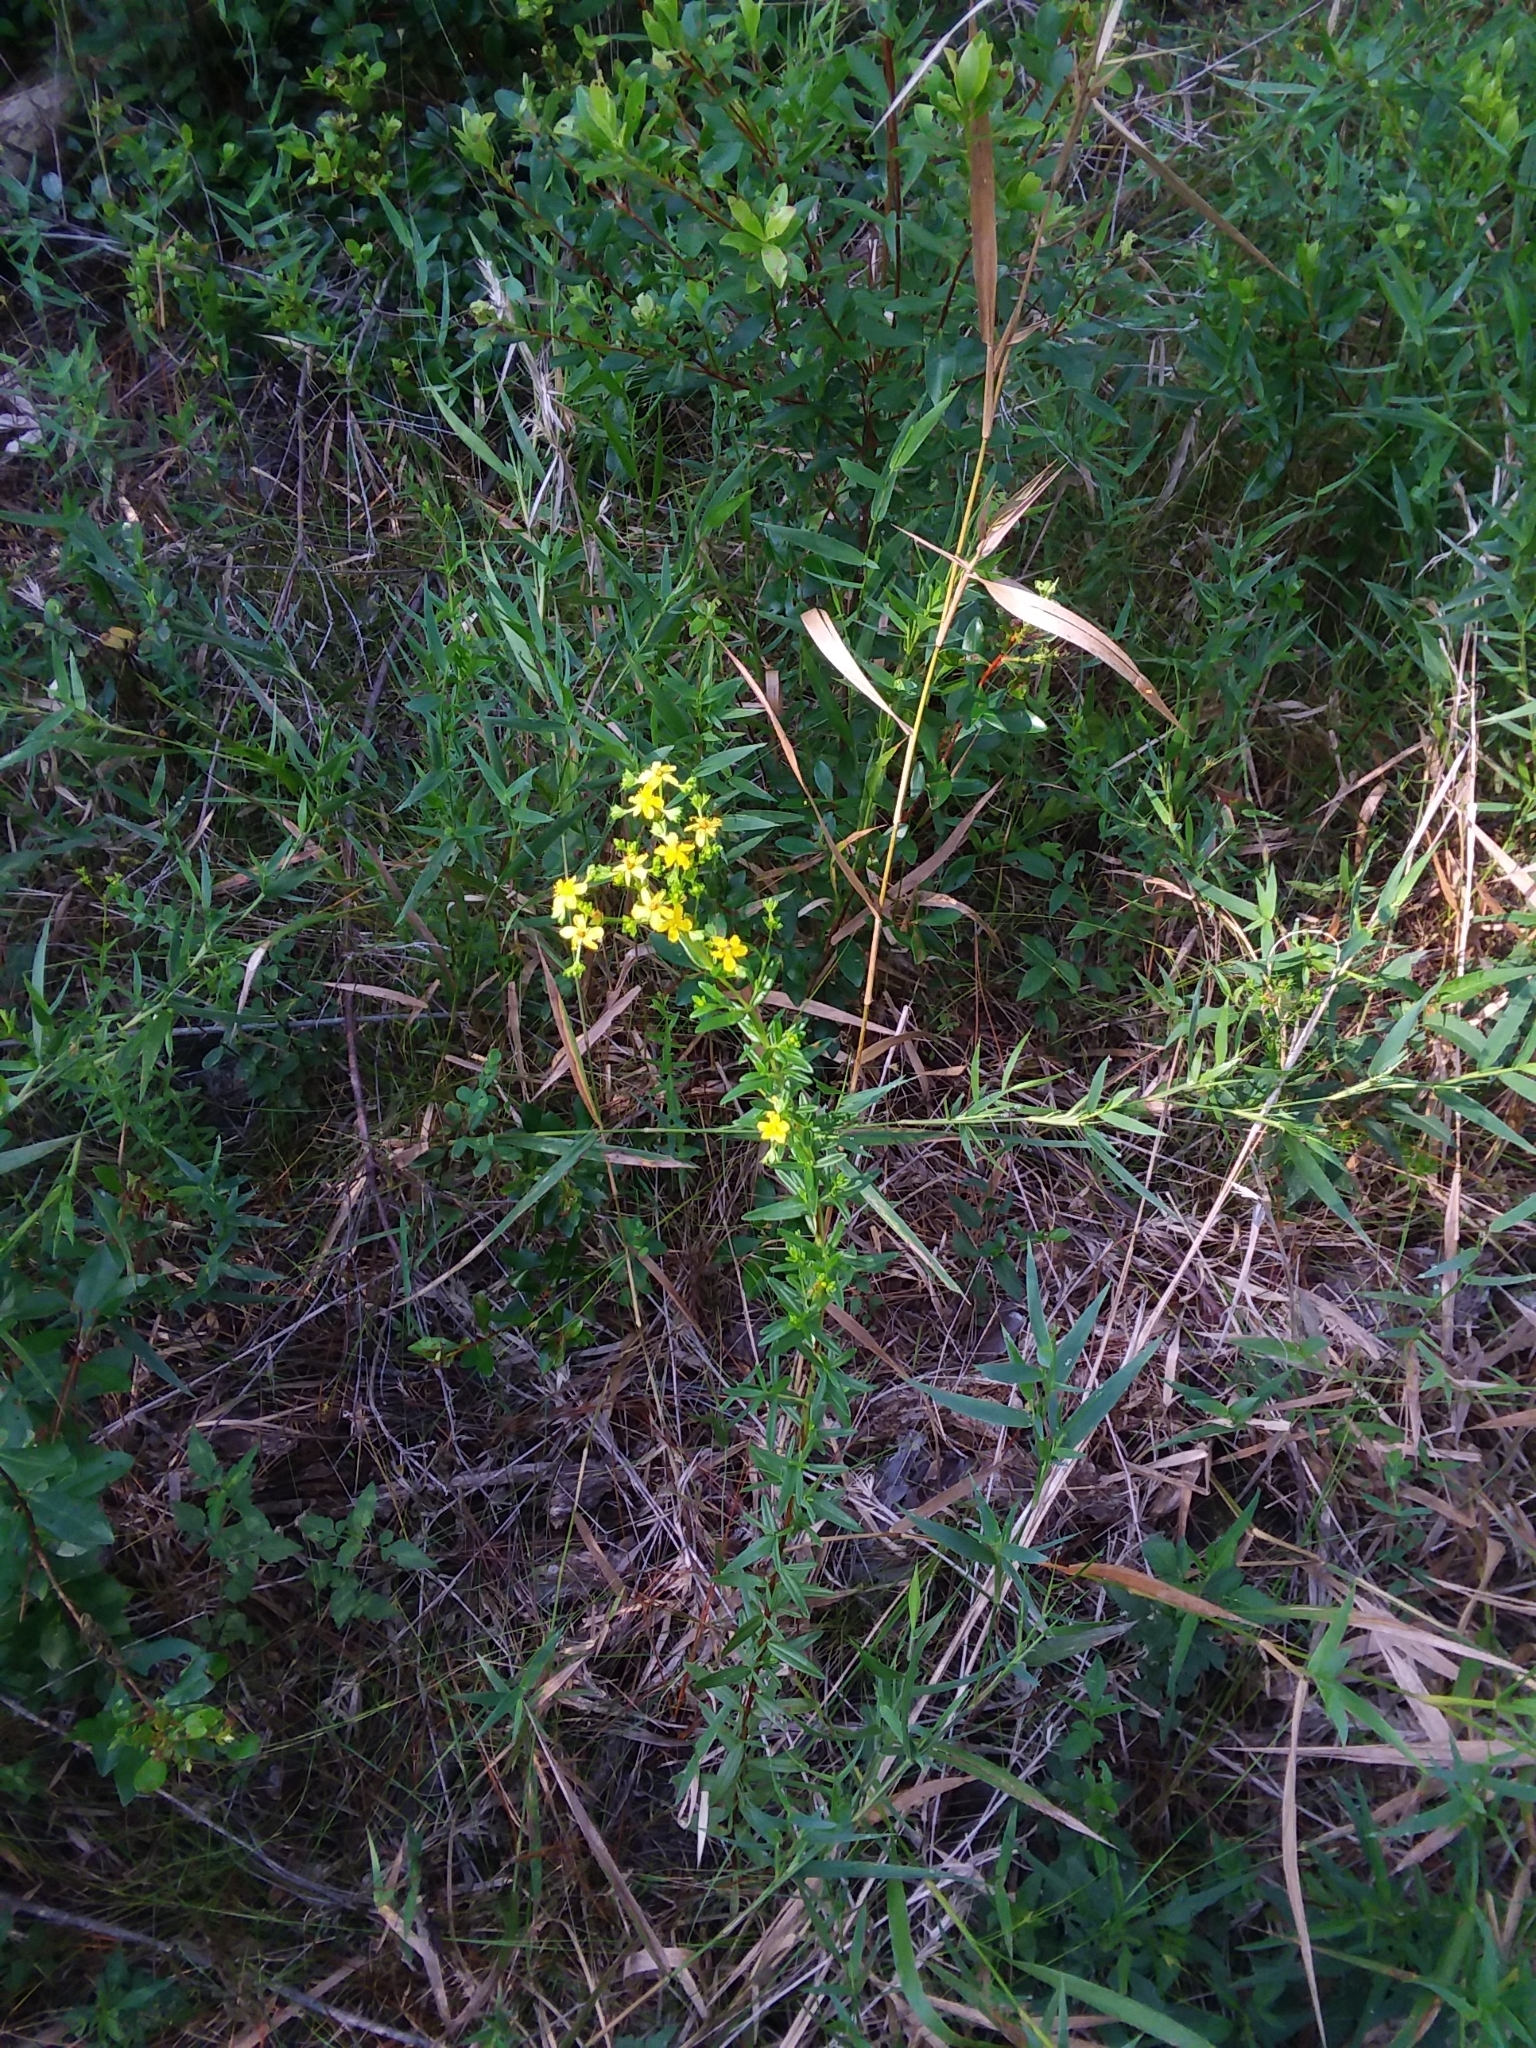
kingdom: Plantae
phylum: Tracheophyta
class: Magnoliopsida
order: Malpighiales
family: Hypericaceae
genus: Hypericum
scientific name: Hypericum cistifolium
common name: Round-pod st. john's-wort
